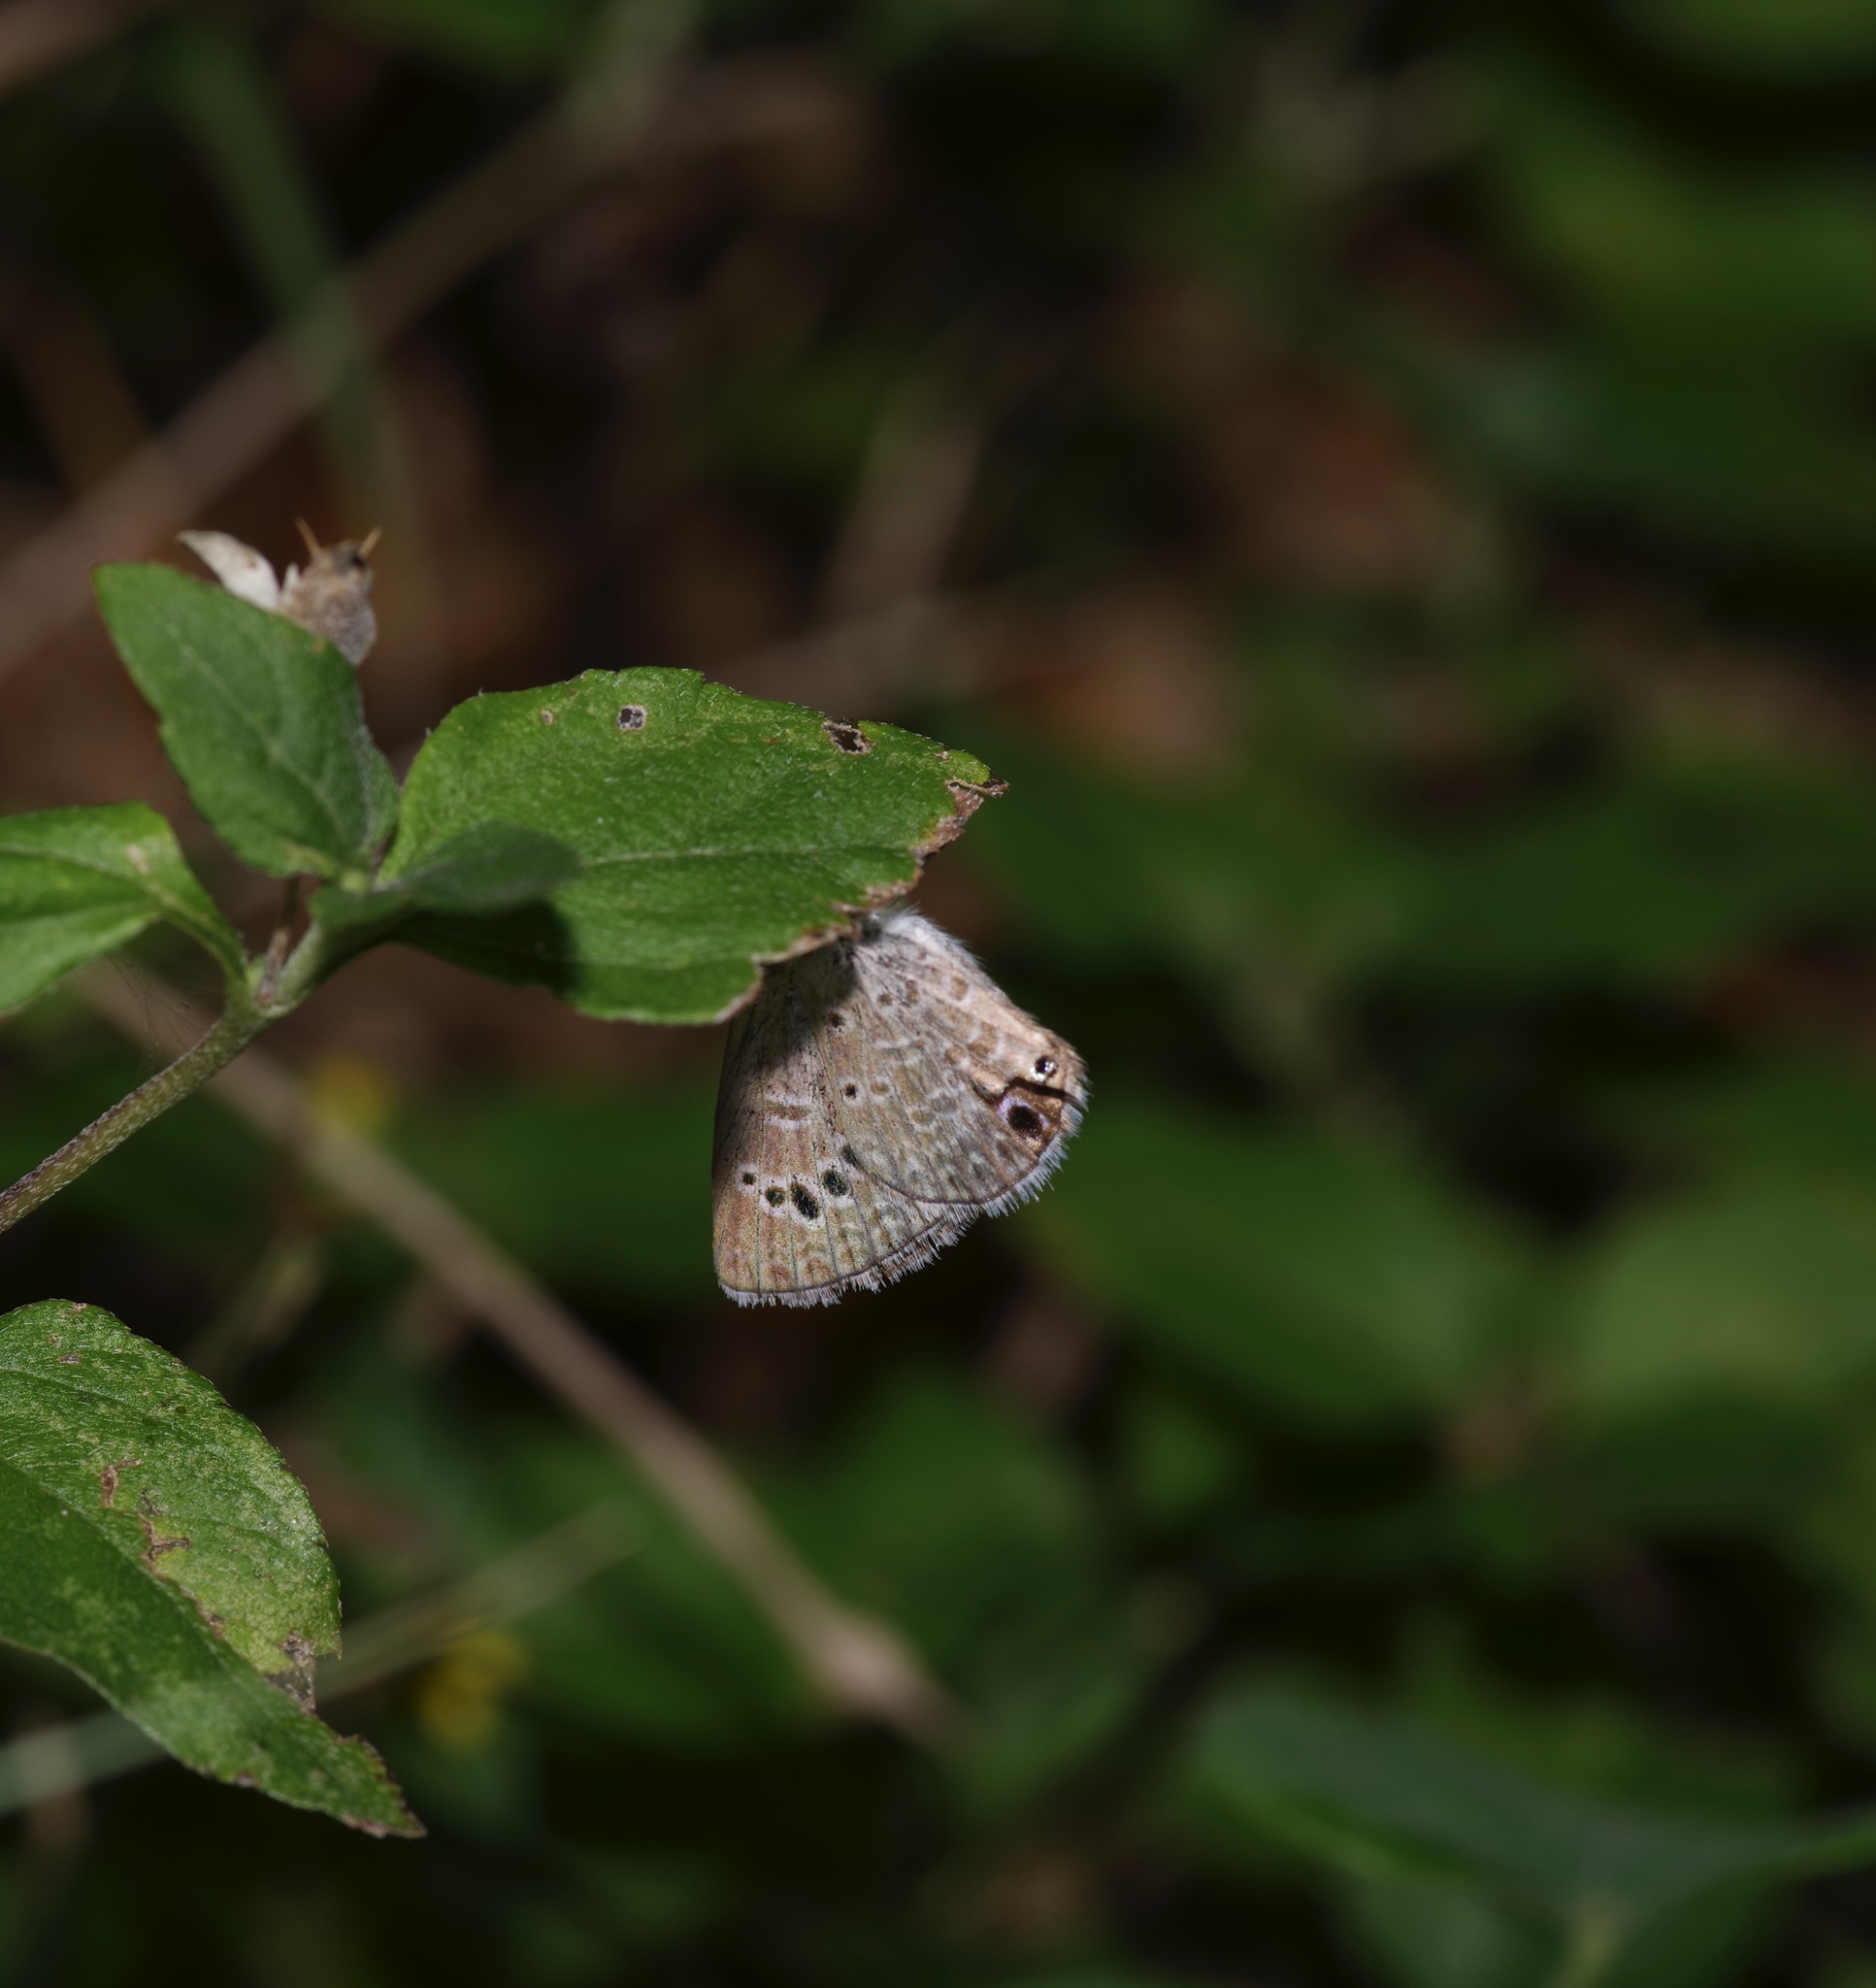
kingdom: Animalia
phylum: Arthropoda
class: Insecta
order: Lepidoptera
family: Lycaenidae
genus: Echinargus
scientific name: Echinargus isola
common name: Reakirt's blue
